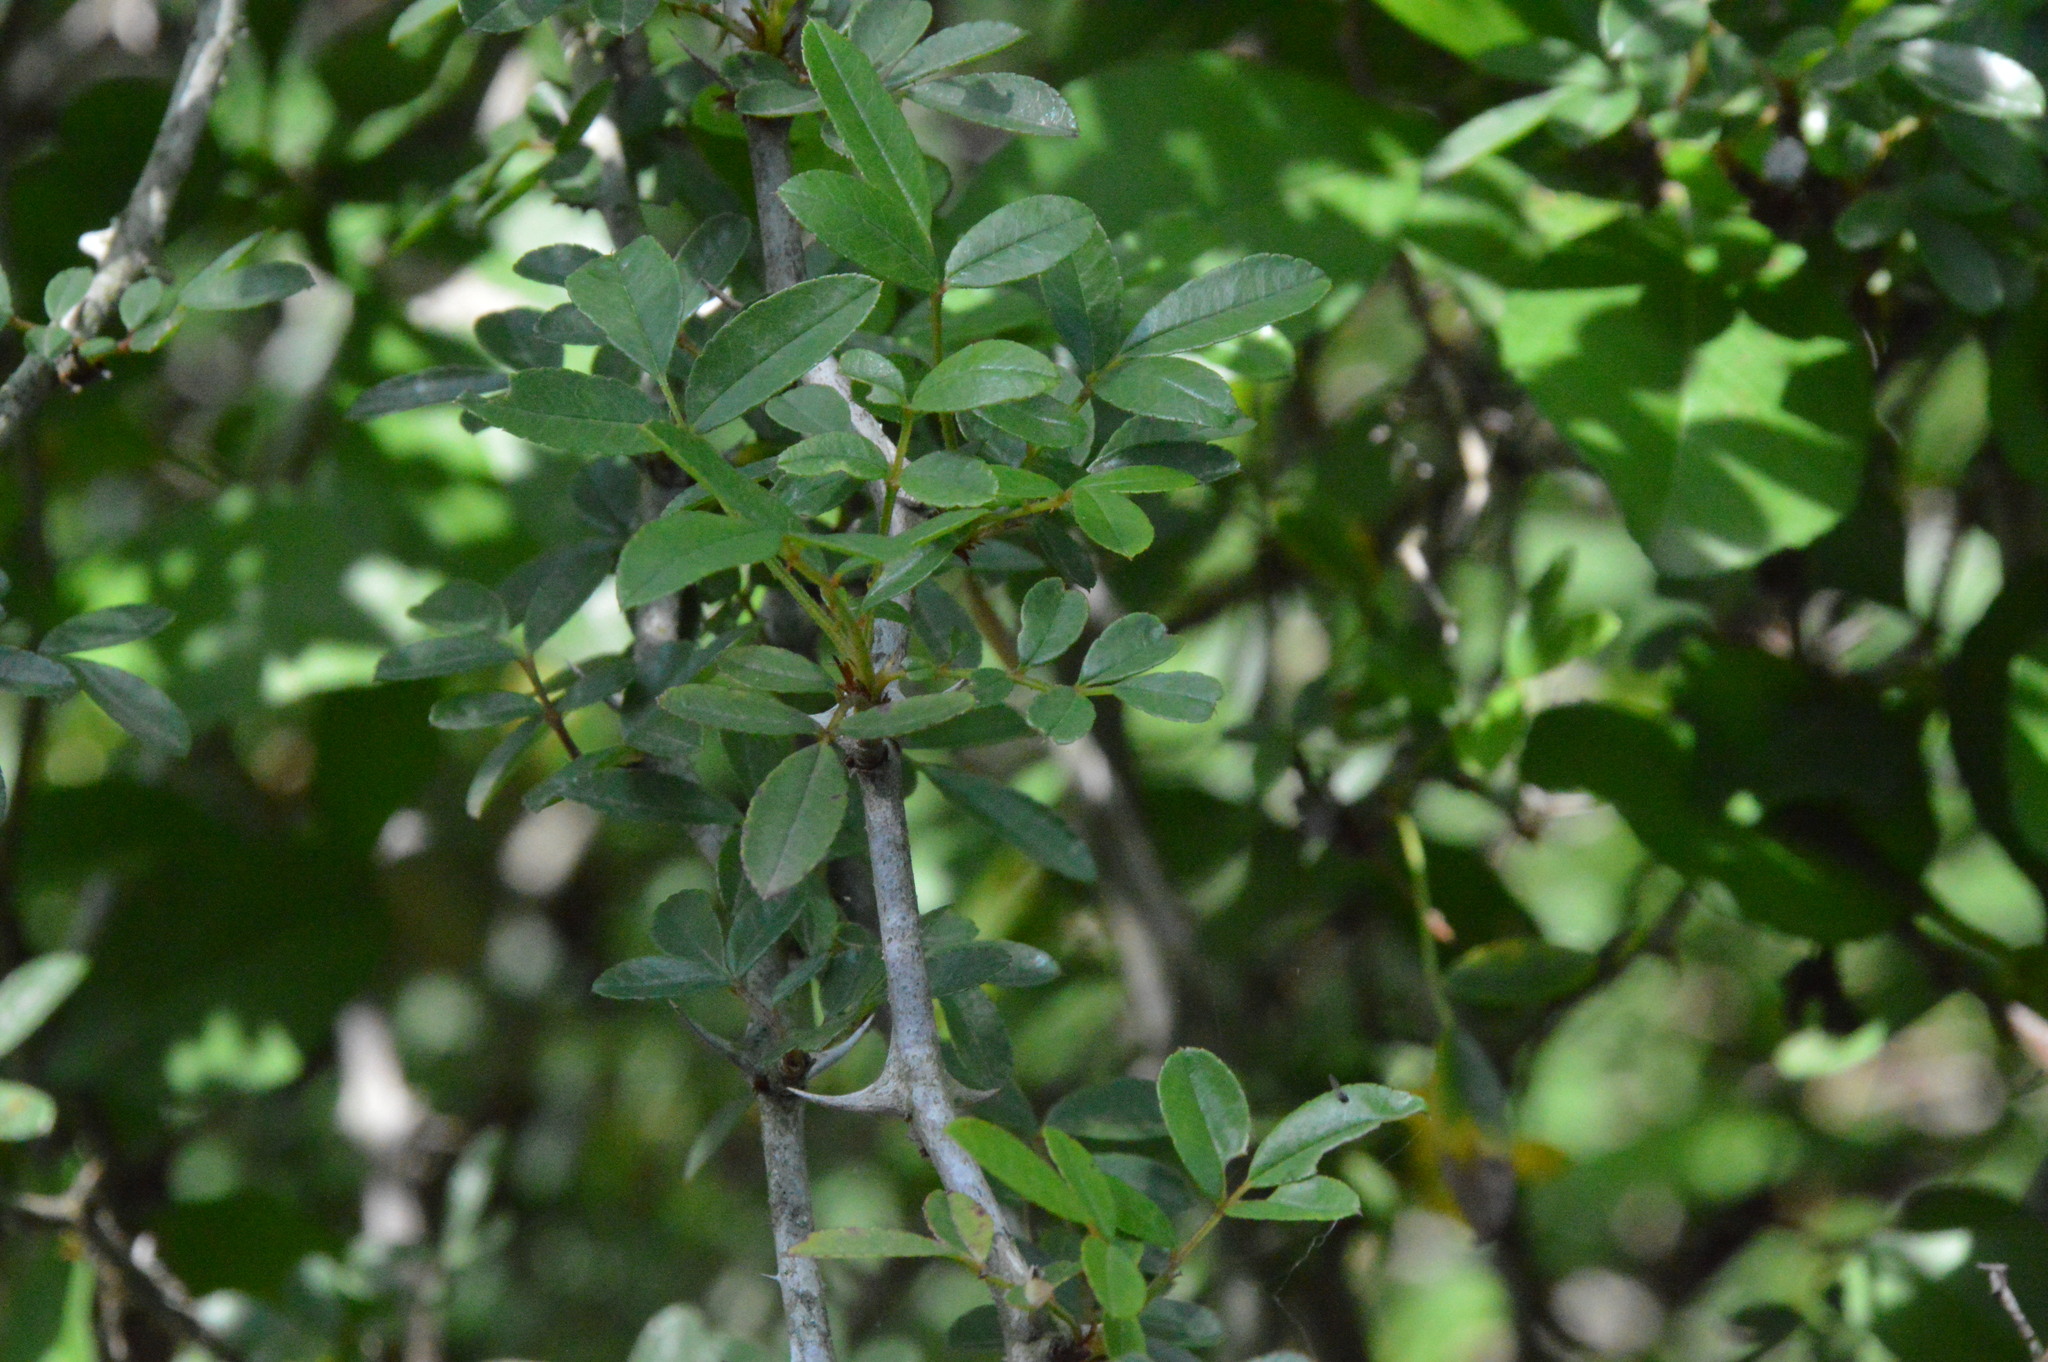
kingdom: Plantae
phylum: Tracheophyta
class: Magnoliopsida
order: Rosales
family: Rosaceae
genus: Rosa
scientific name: Rosa bracteata
